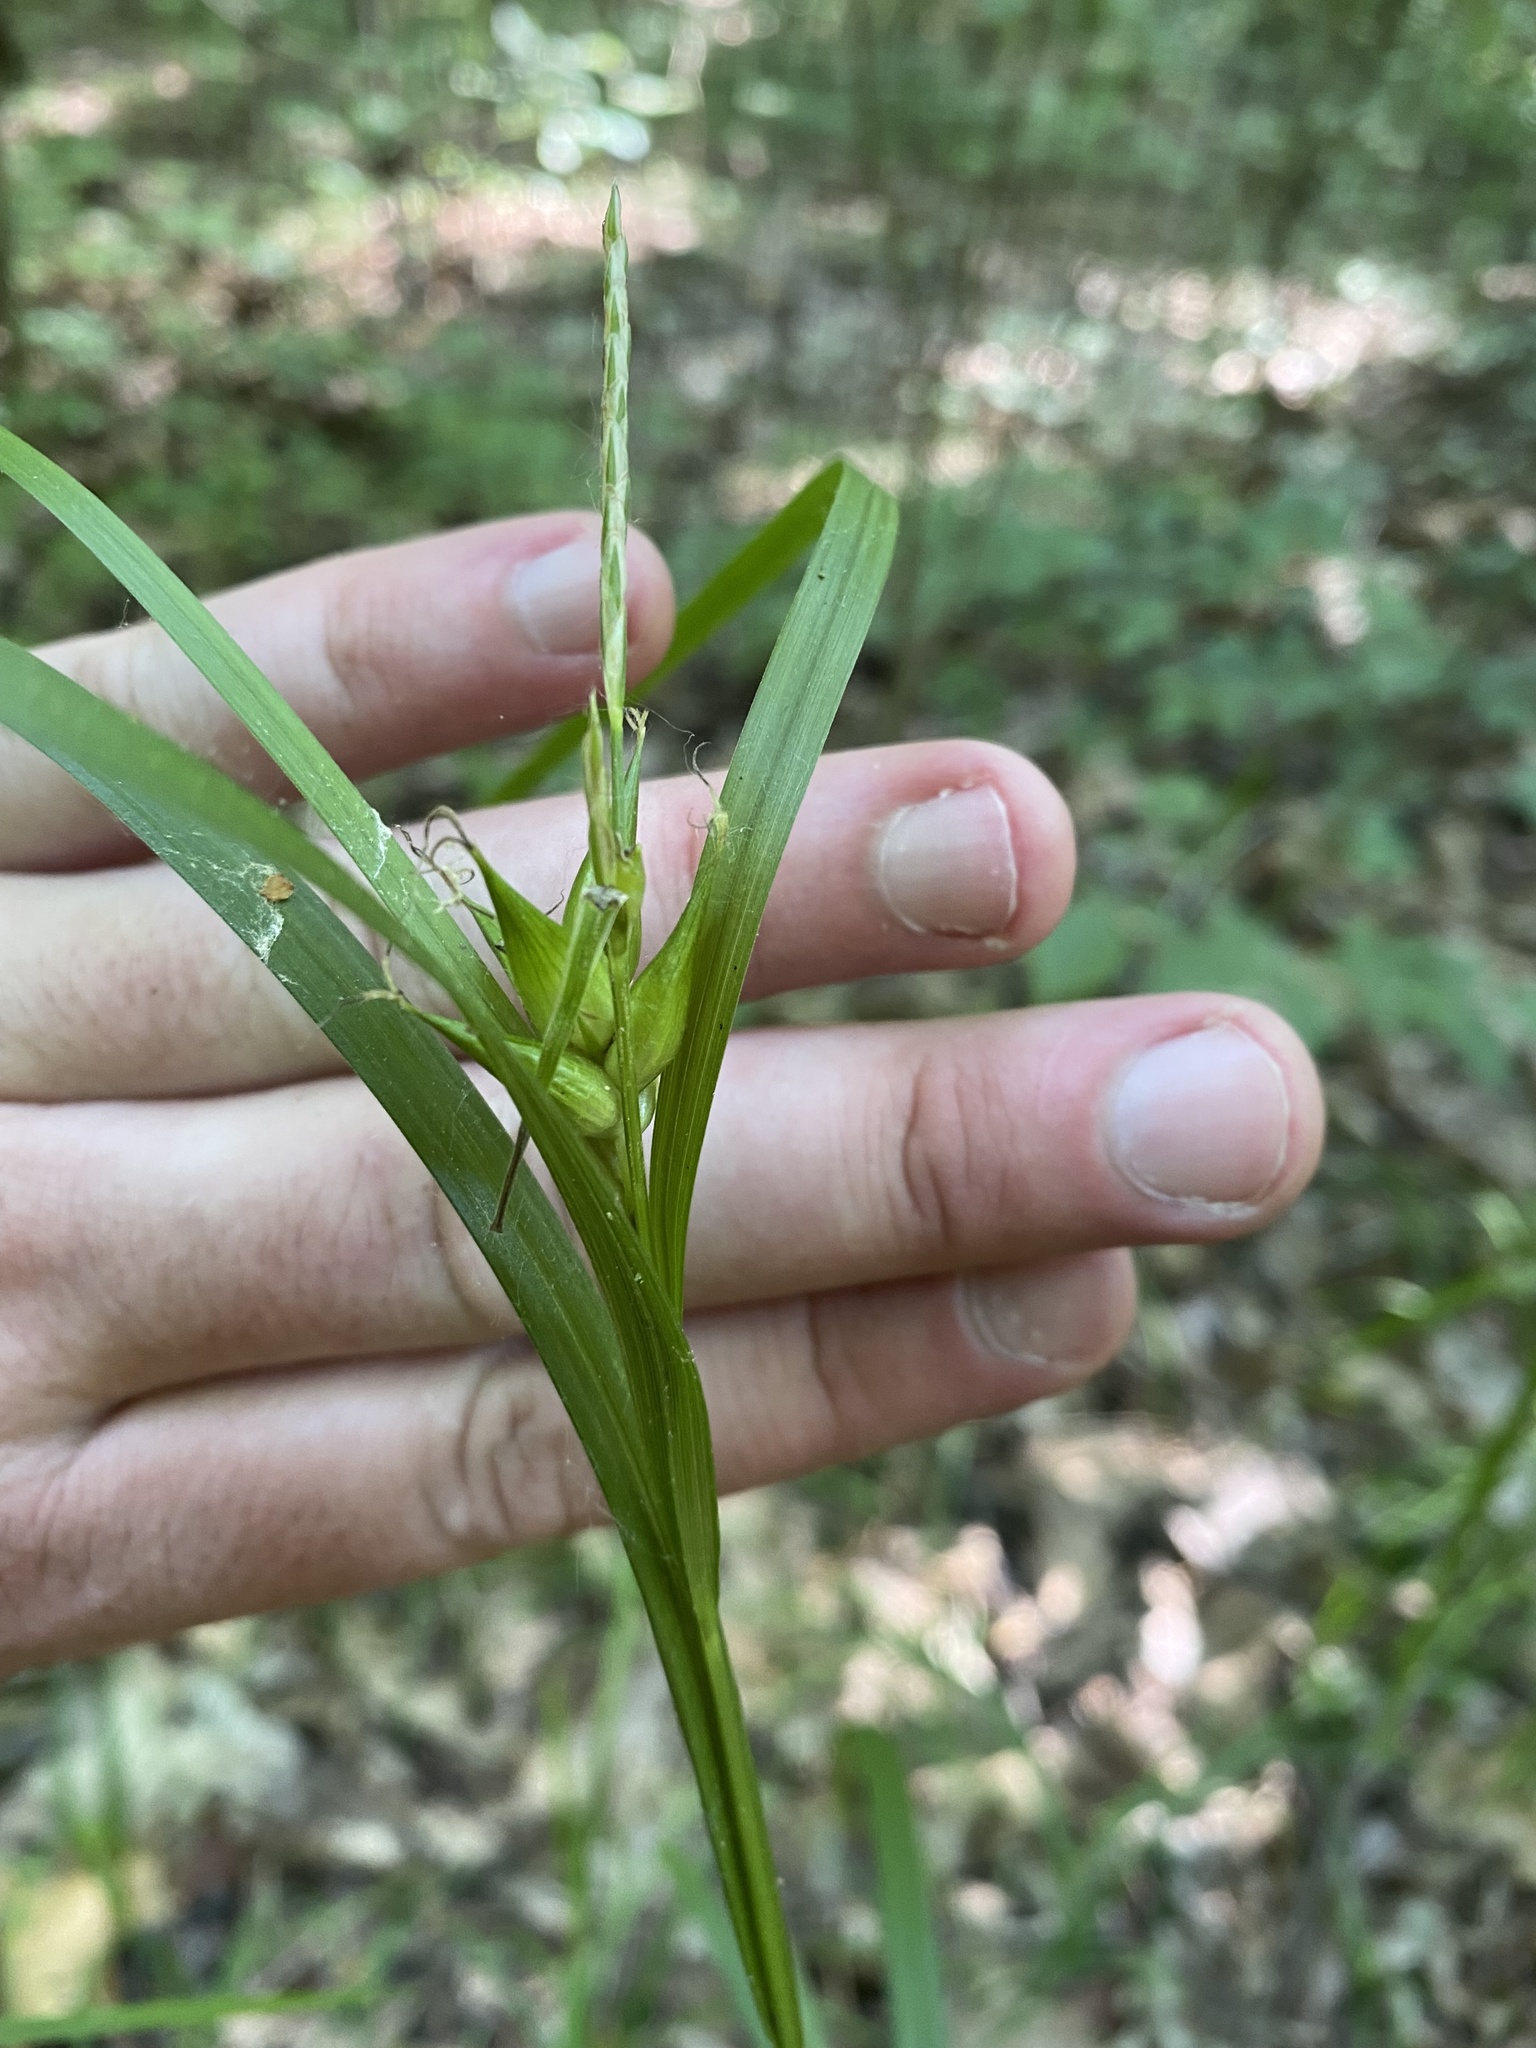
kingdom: Plantae
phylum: Tracheophyta
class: Liliopsida
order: Poales
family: Cyperaceae
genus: Carex
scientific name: Carex intumescens
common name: Greater bladder sedge
